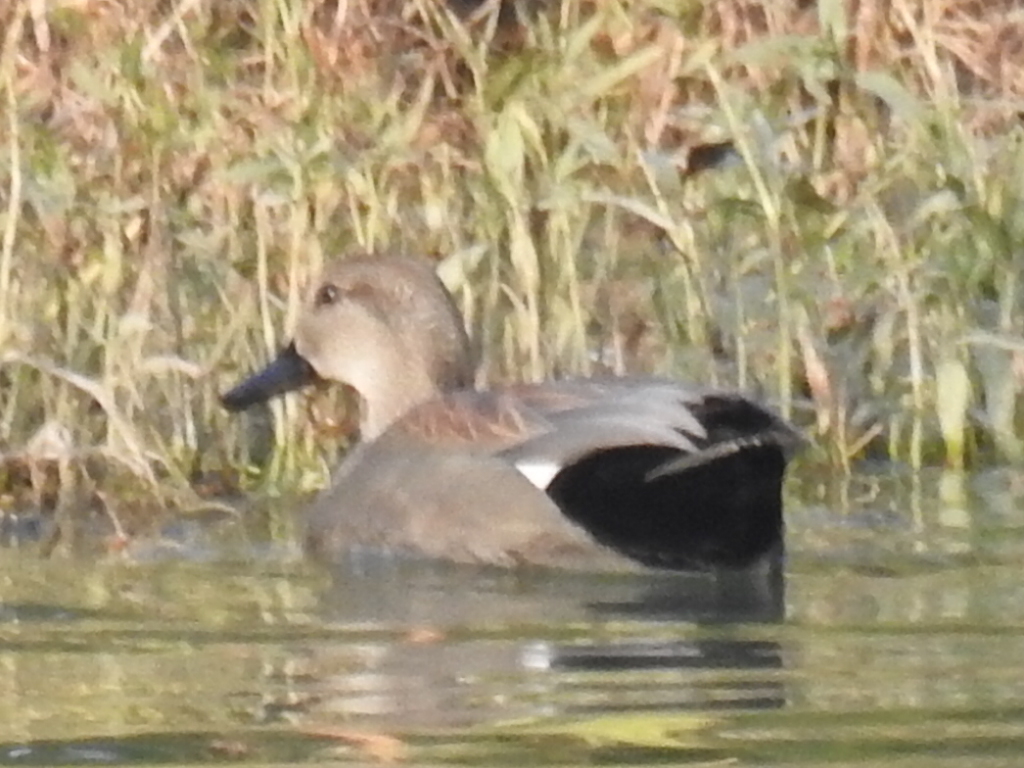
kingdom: Animalia
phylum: Chordata
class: Aves
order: Anseriformes
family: Anatidae
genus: Mareca
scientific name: Mareca strepera
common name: Gadwall
